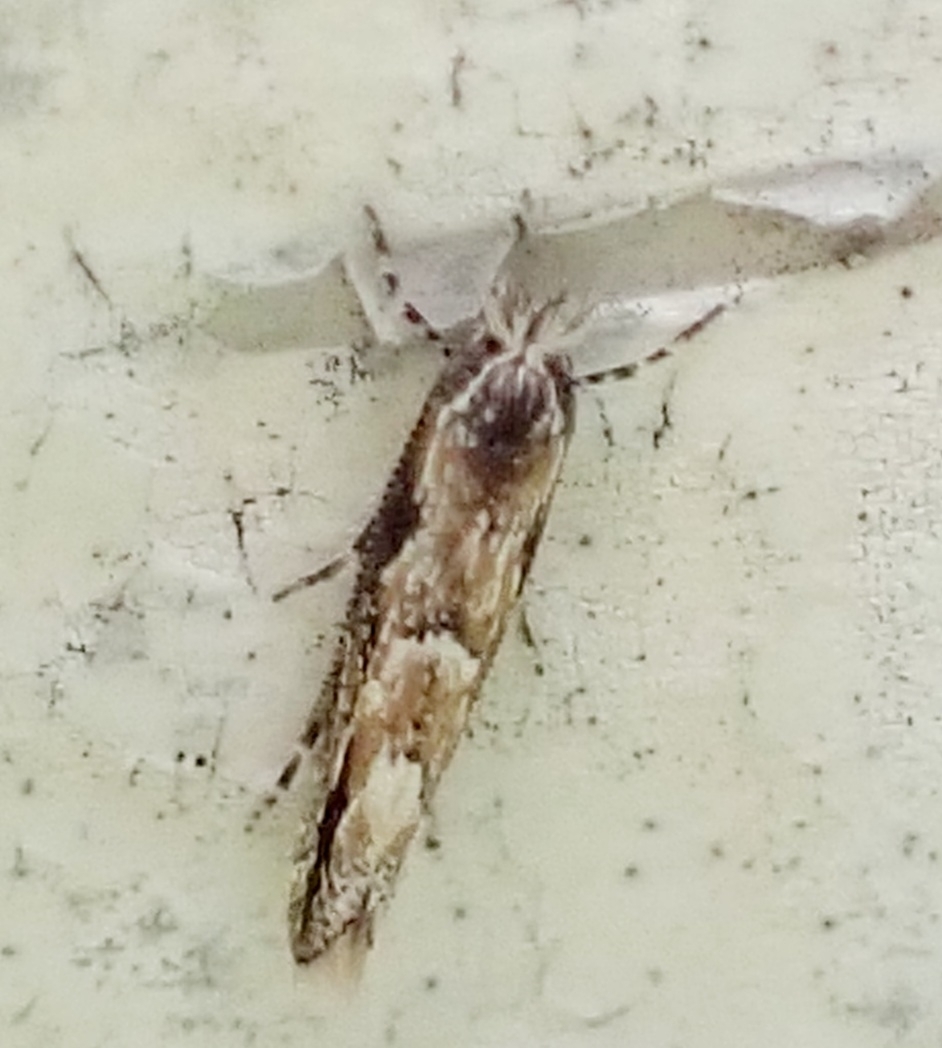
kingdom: Animalia
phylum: Arthropoda
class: Insecta
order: Lepidoptera
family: Gracillariidae
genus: Phyllonorycter
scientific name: Phyllonorycter issikii
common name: Linden midget
